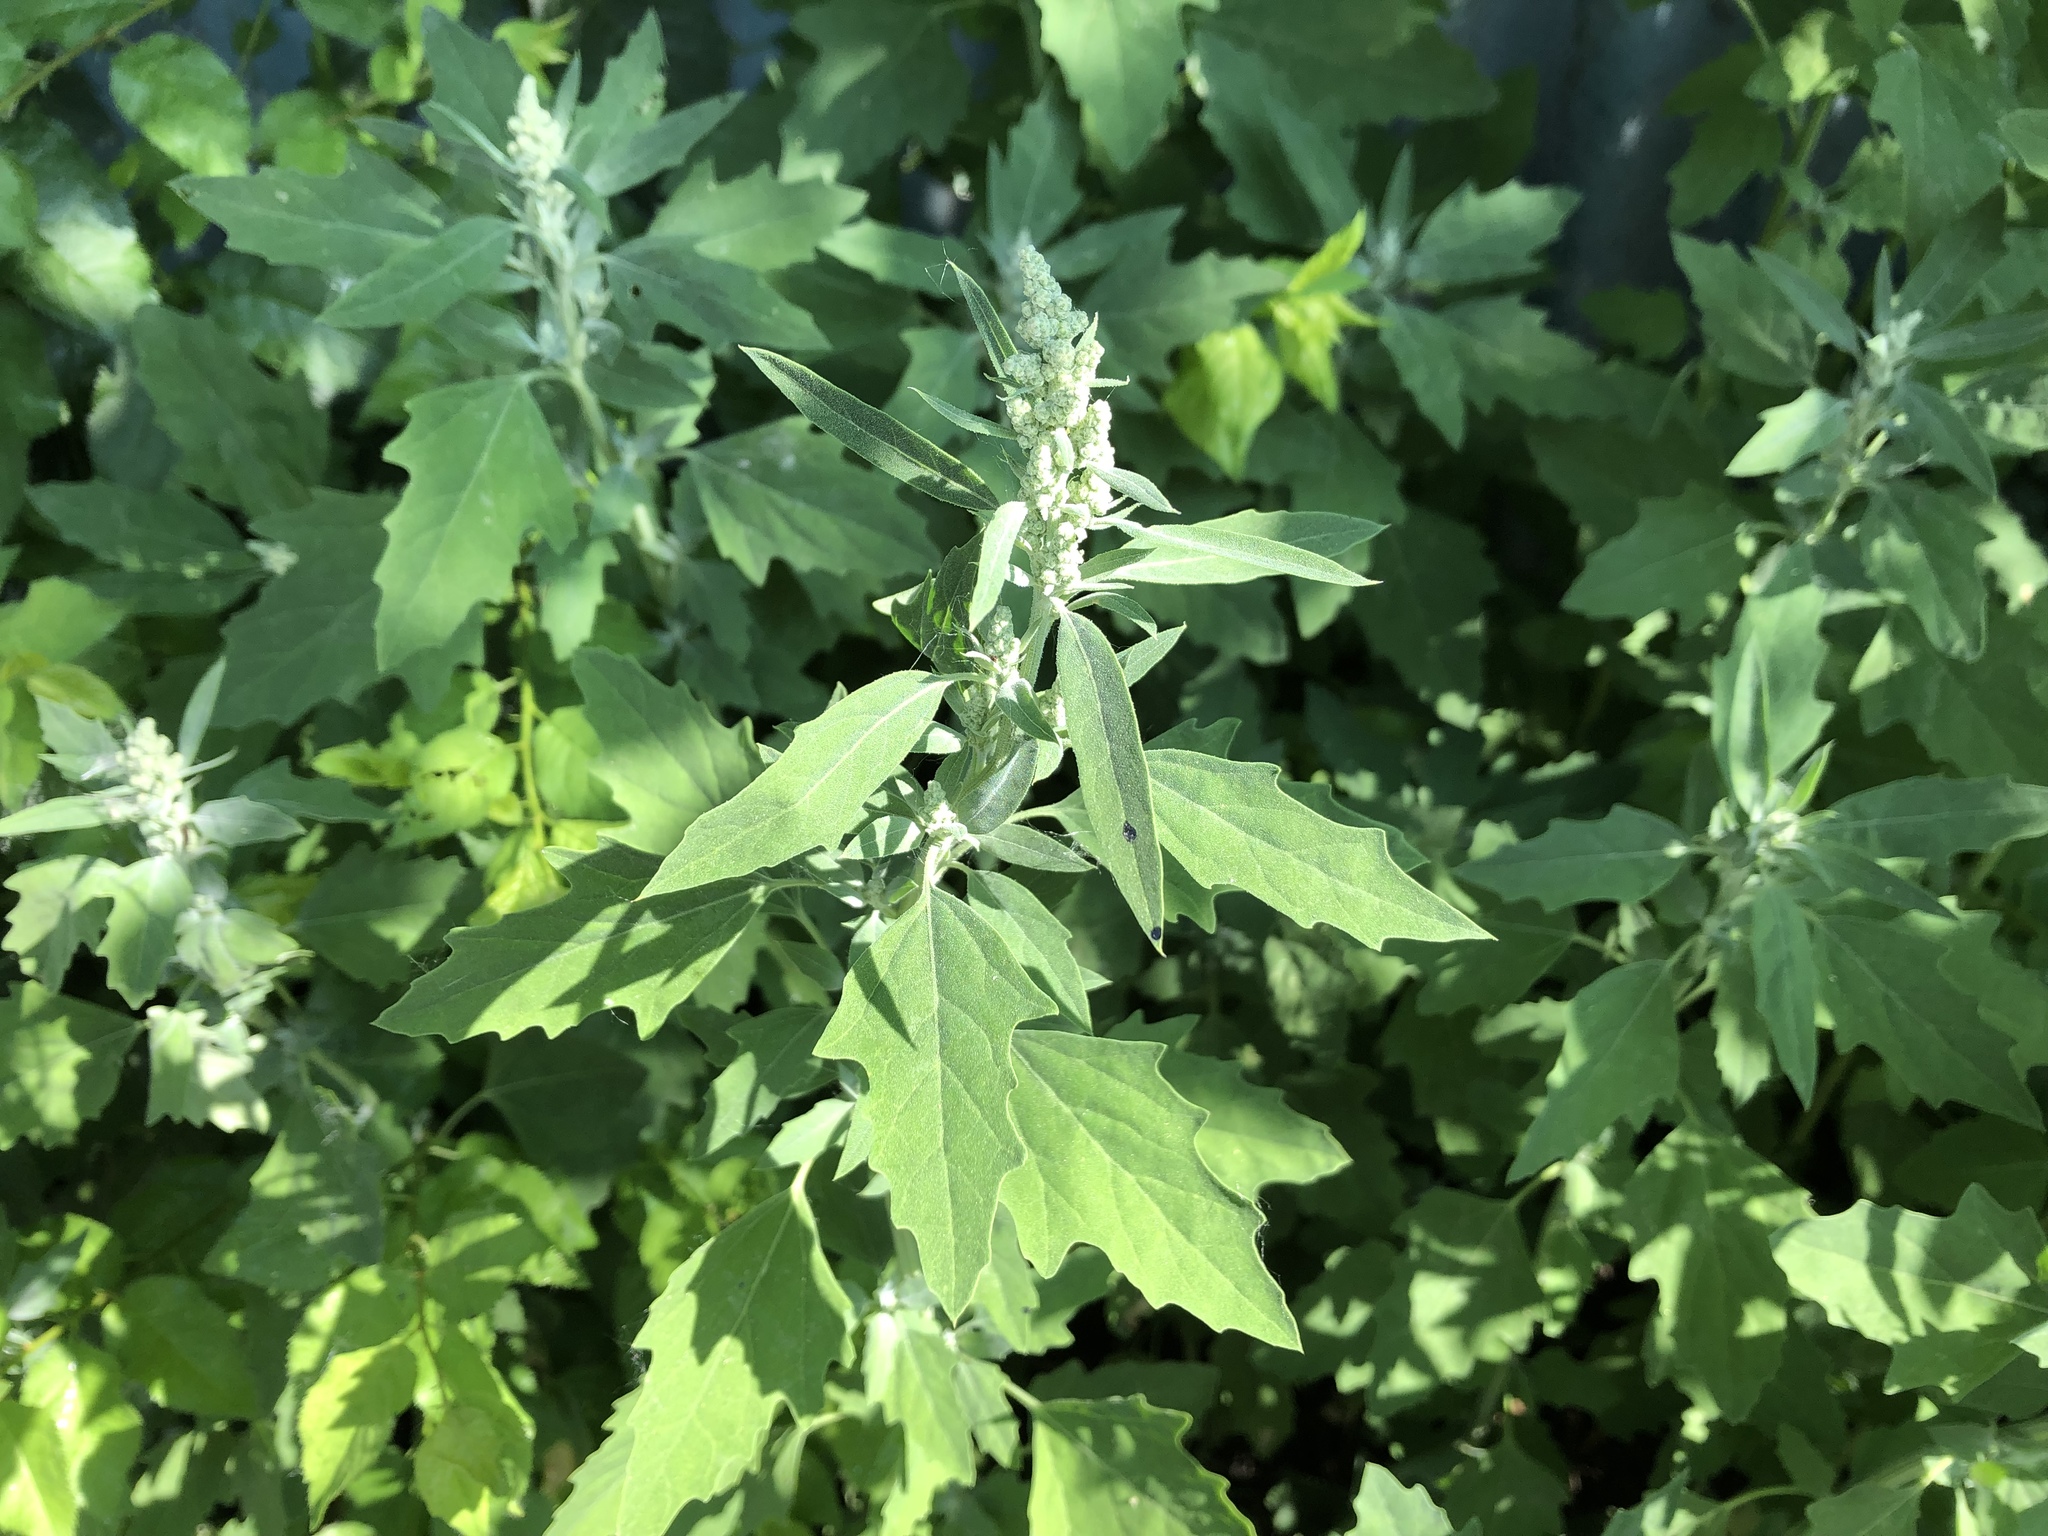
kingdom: Plantae
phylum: Tracheophyta
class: Magnoliopsida
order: Caryophyllales
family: Amaranthaceae
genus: Chenopodium
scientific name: Chenopodium album
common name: Fat-hen
